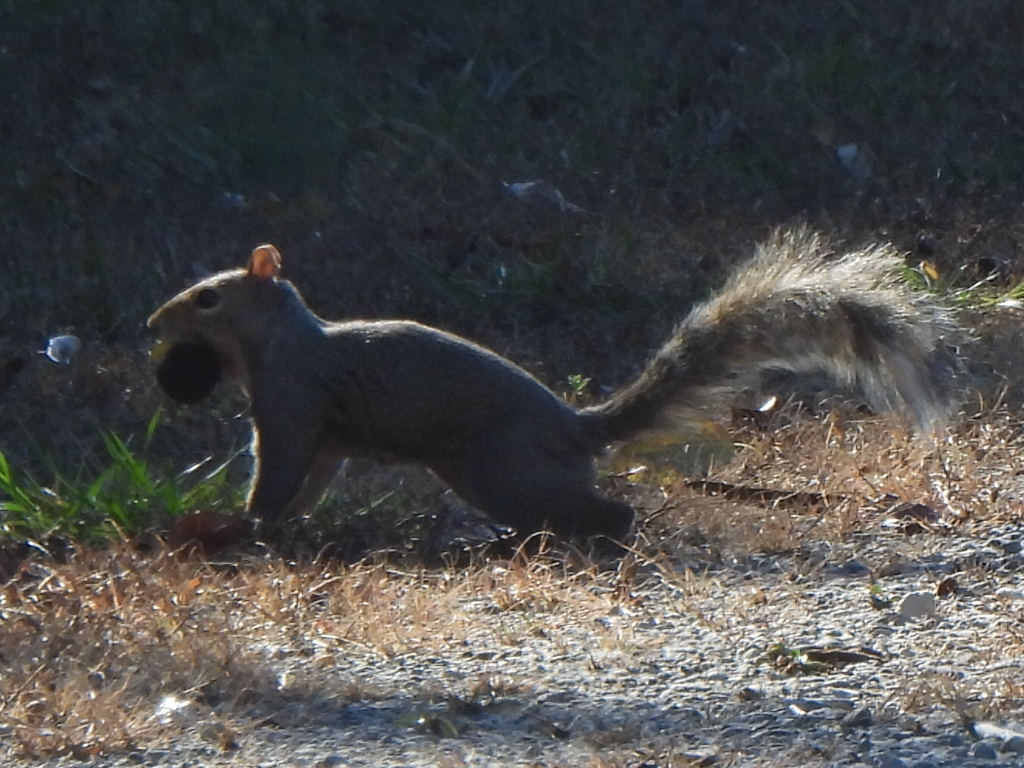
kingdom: Animalia
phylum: Chordata
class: Mammalia
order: Rodentia
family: Sciuridae
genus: Sciurus
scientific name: Sciurus carolinensis
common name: Eastern gray squirrel
